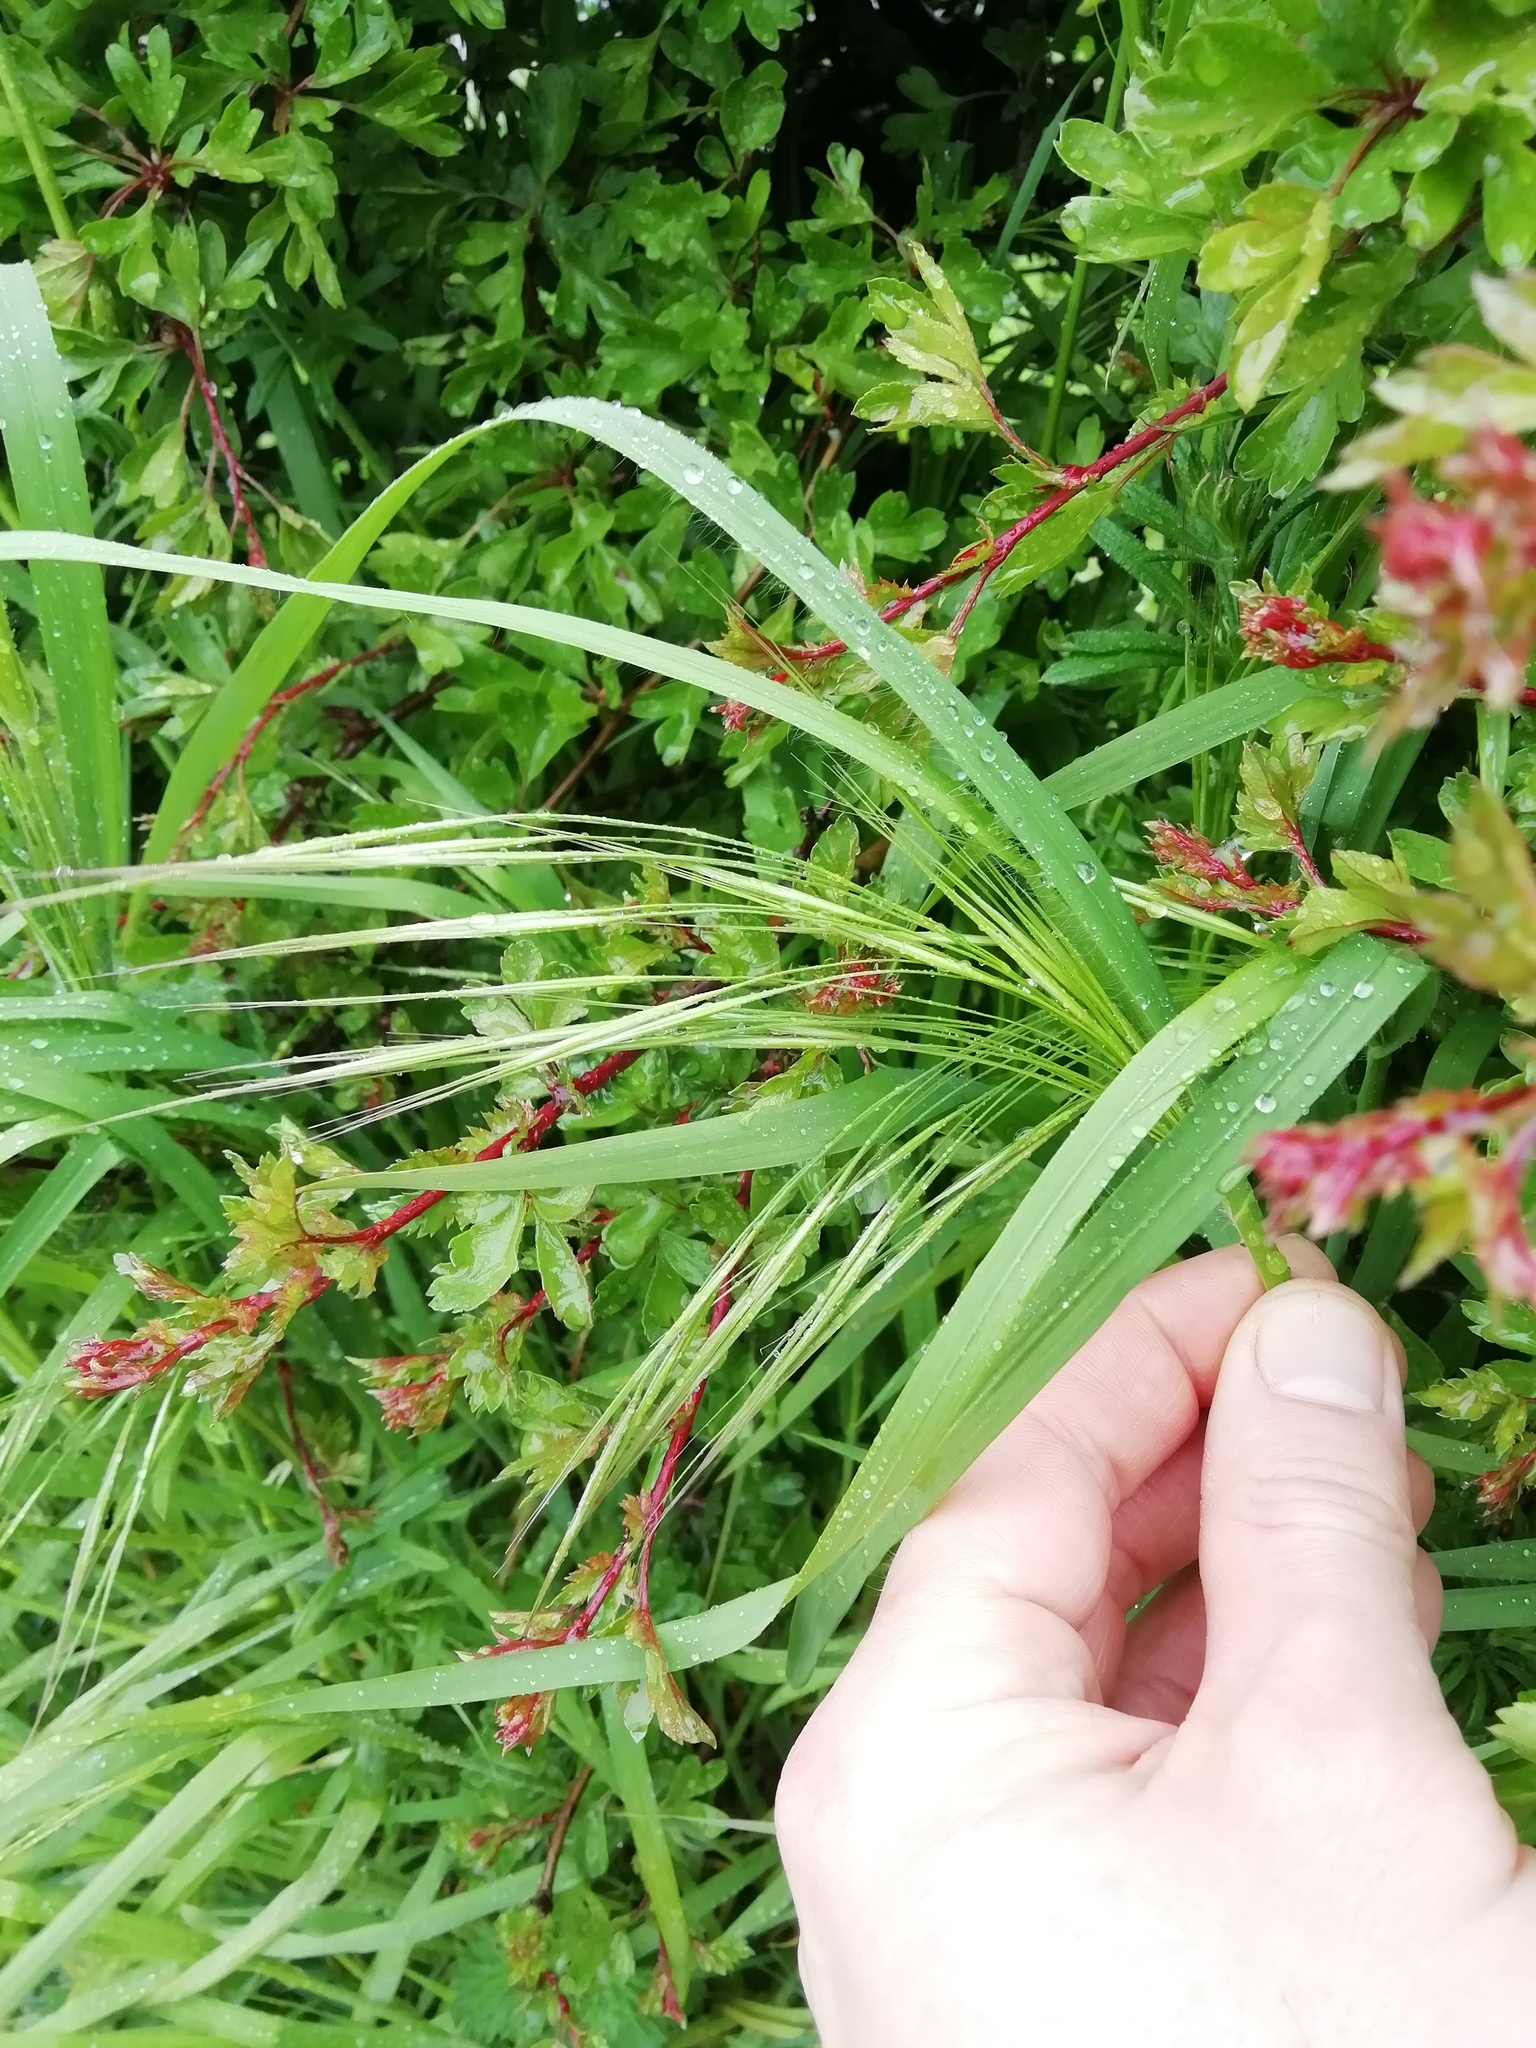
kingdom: Plantae
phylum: Tracheophyta
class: Liliopsida
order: Poales
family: Poaceae
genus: Bromus
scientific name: Bromus sterilis
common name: Poverty brome
